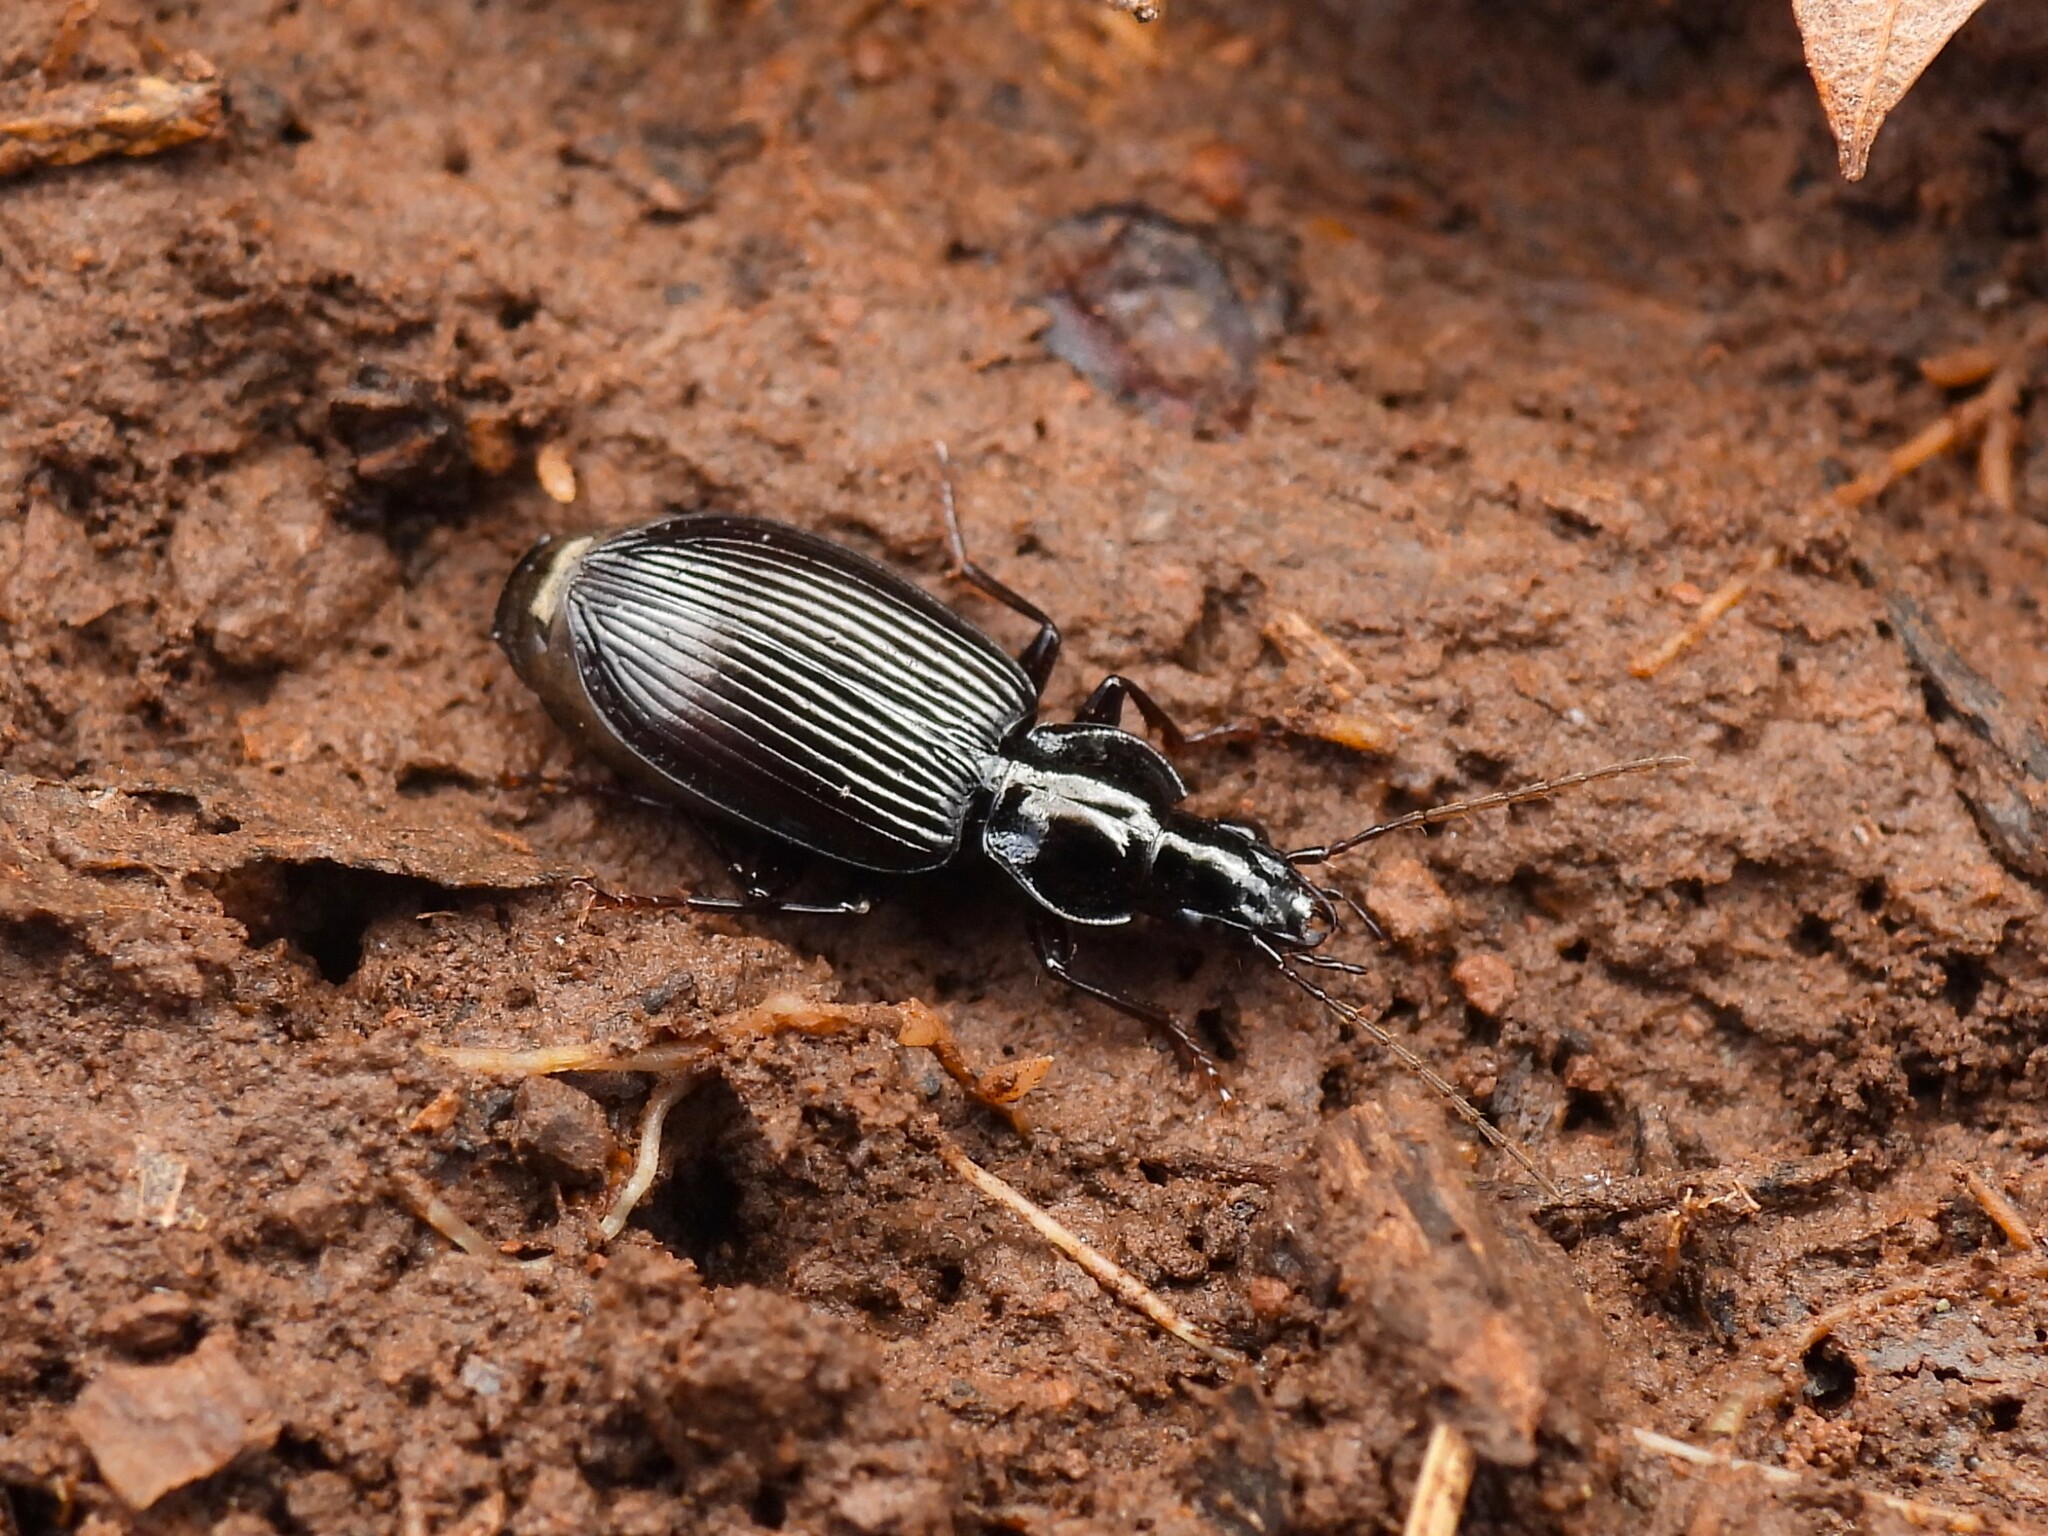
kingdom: Animalia
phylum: Arthropoda
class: Insecta
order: Coleoptera
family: Carabidae
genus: Platynus
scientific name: Platynus decentis
